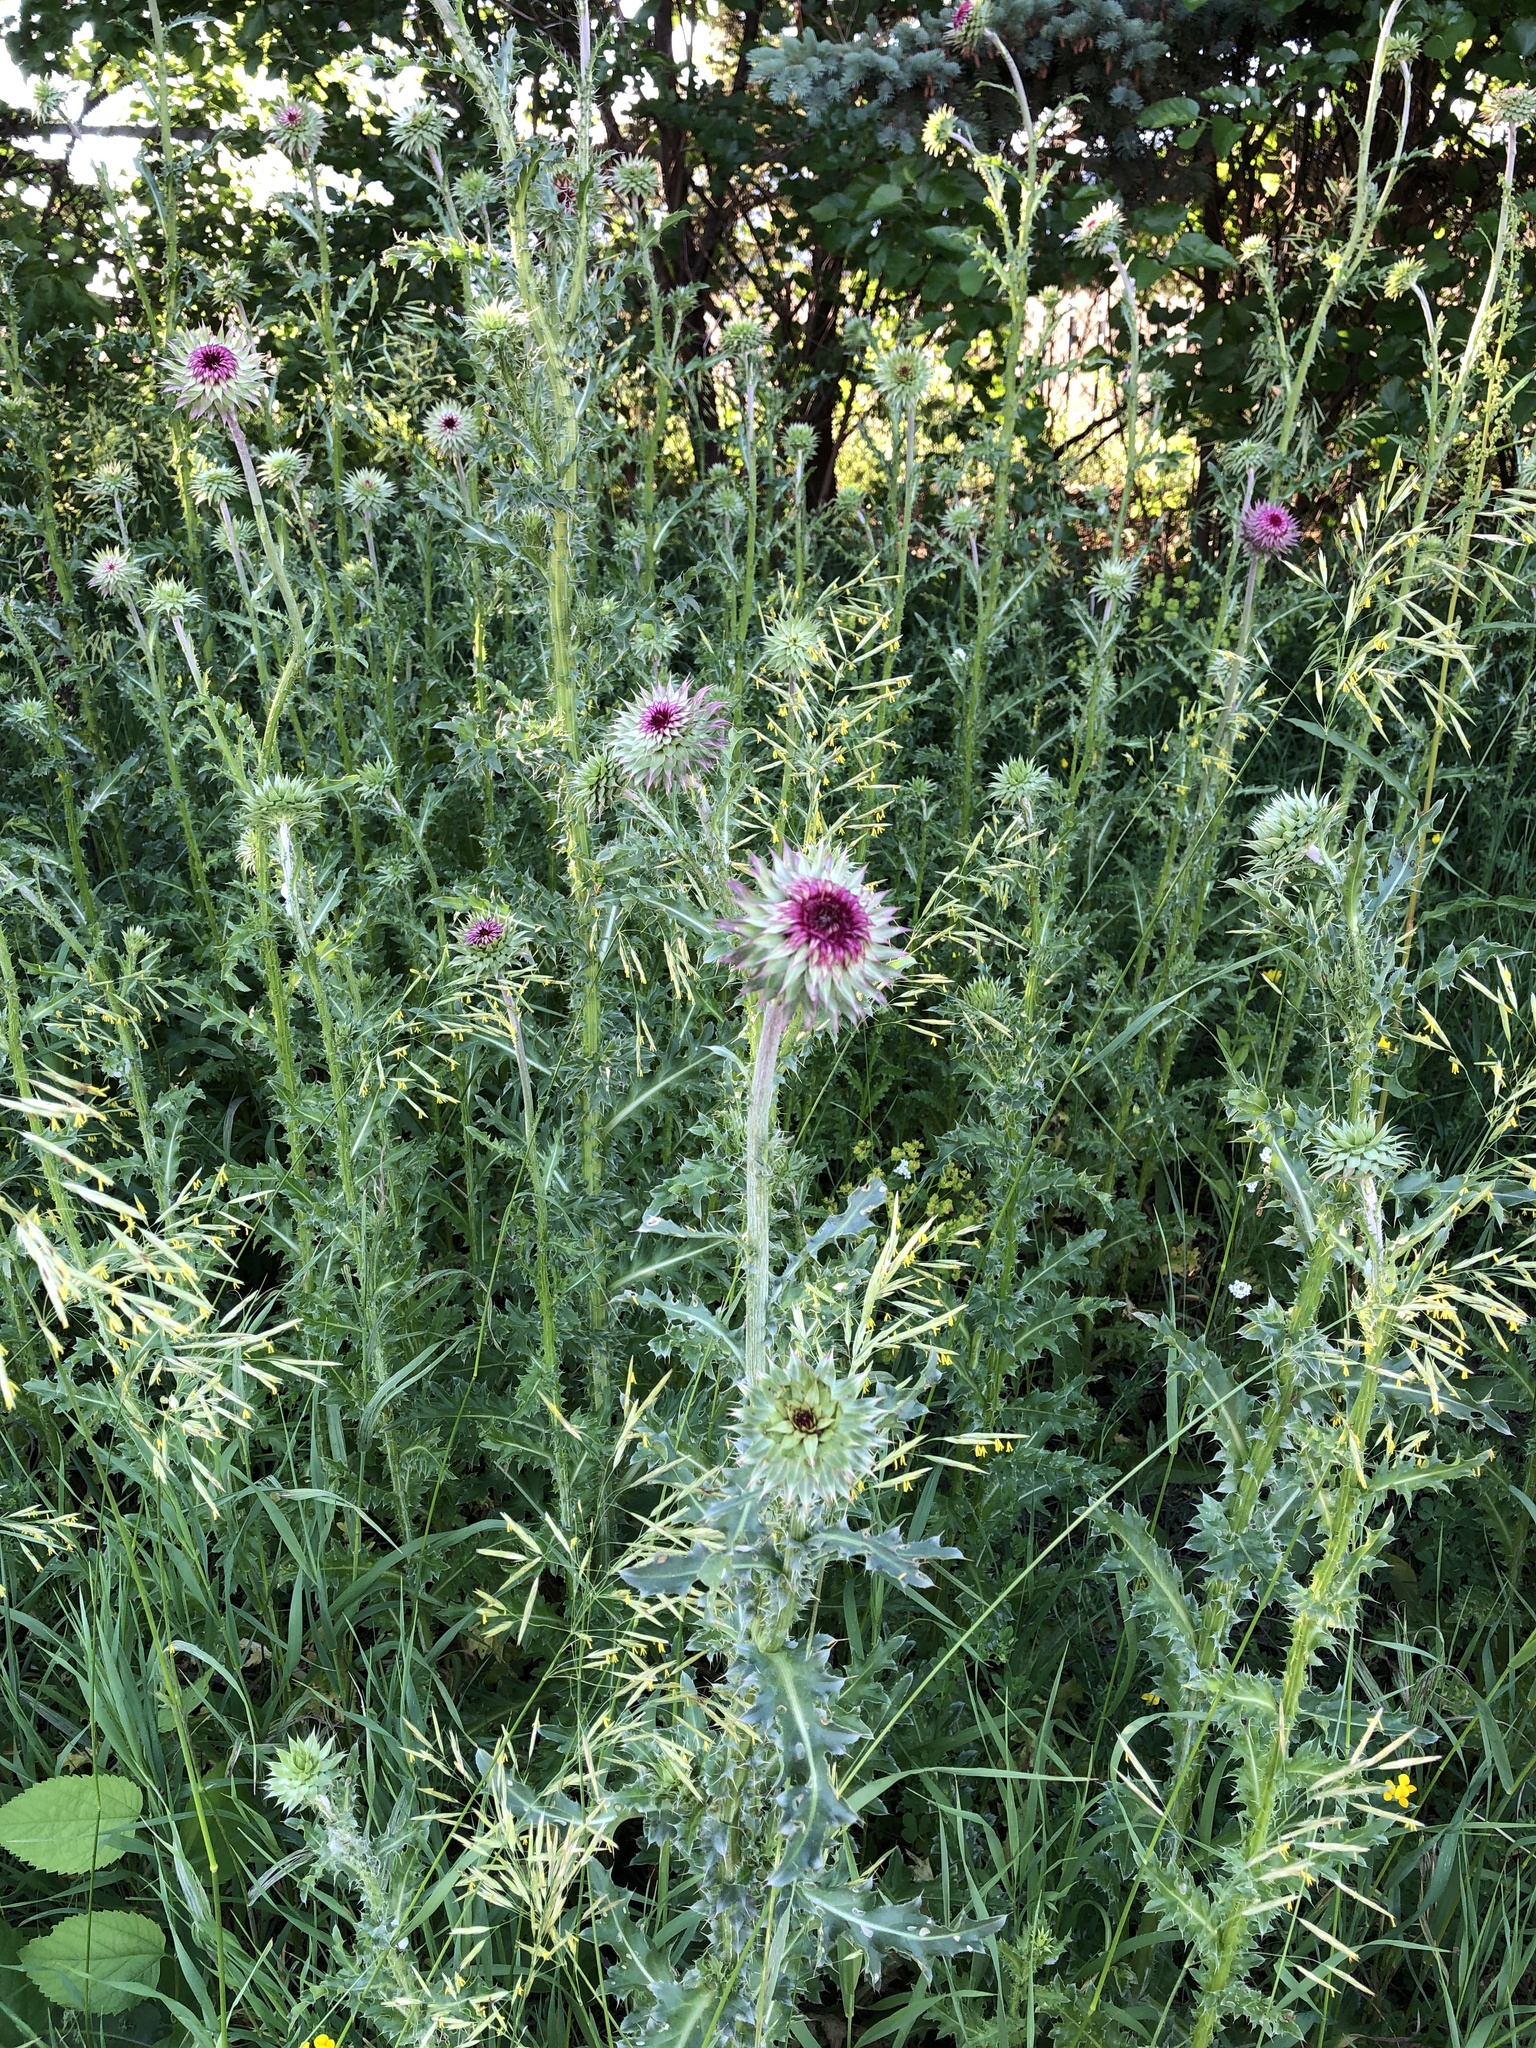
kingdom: Plantae
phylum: Tracheophyta
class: Magnoliopsida
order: Asterales
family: Asteraceae
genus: Carduus
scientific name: Carduus nutans
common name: Musk thistle
